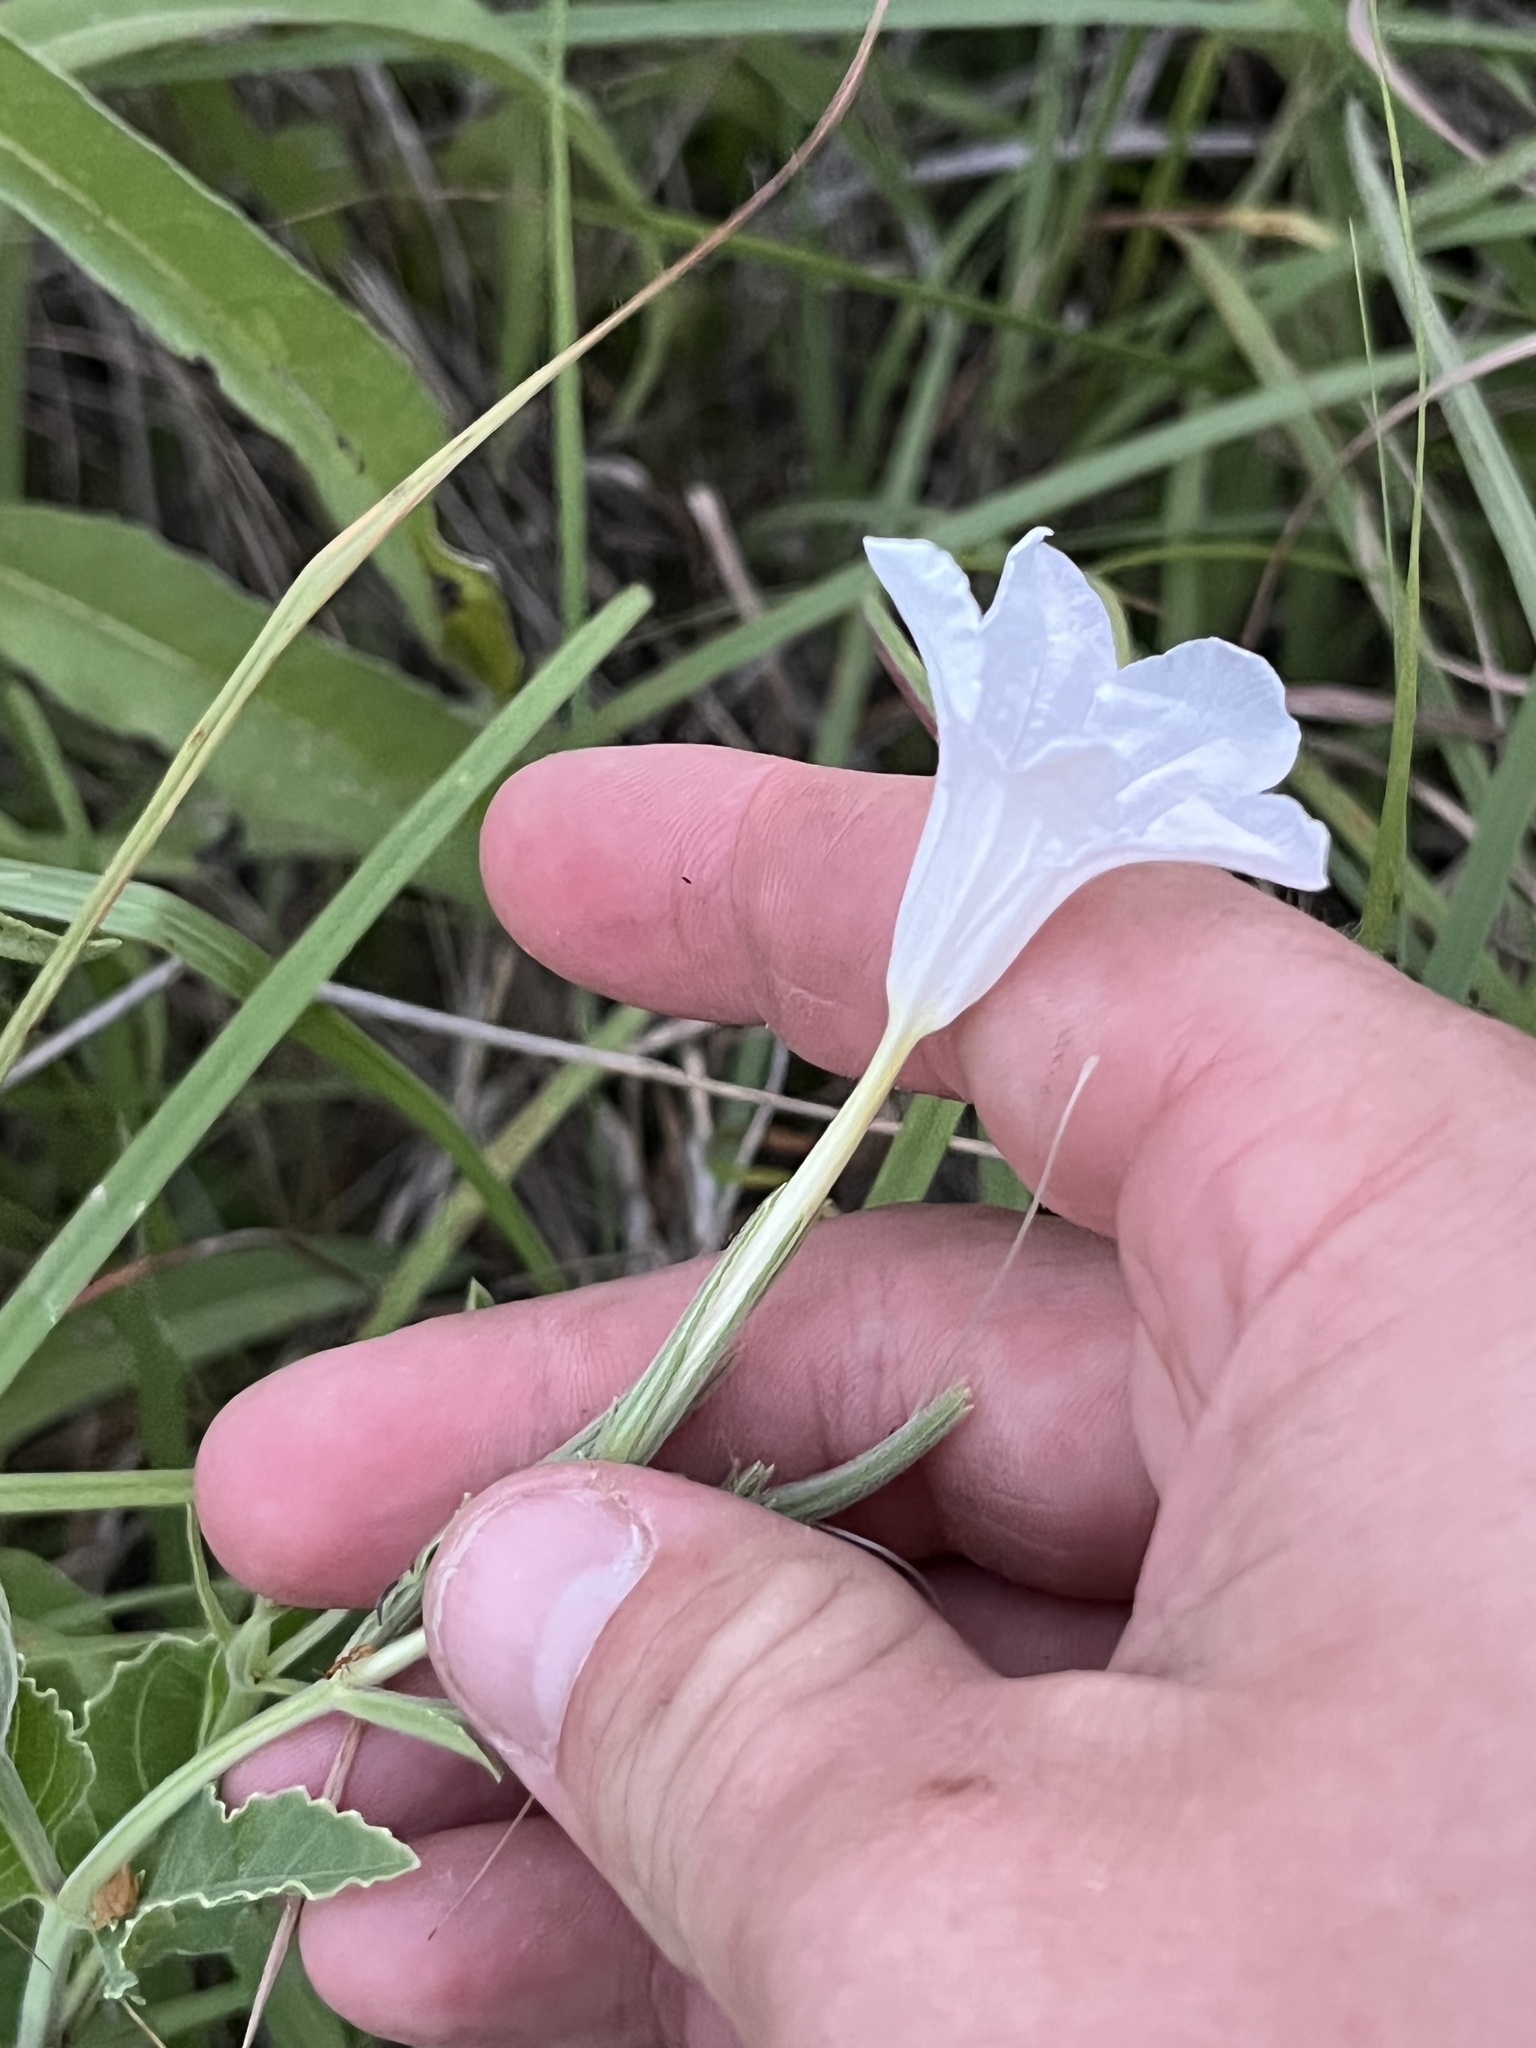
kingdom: Plantae
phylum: Tracheophyta
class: Magnoliopsida
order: Lamiales
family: Acanthaceae
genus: Ruellia
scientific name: Ruellia metziae
